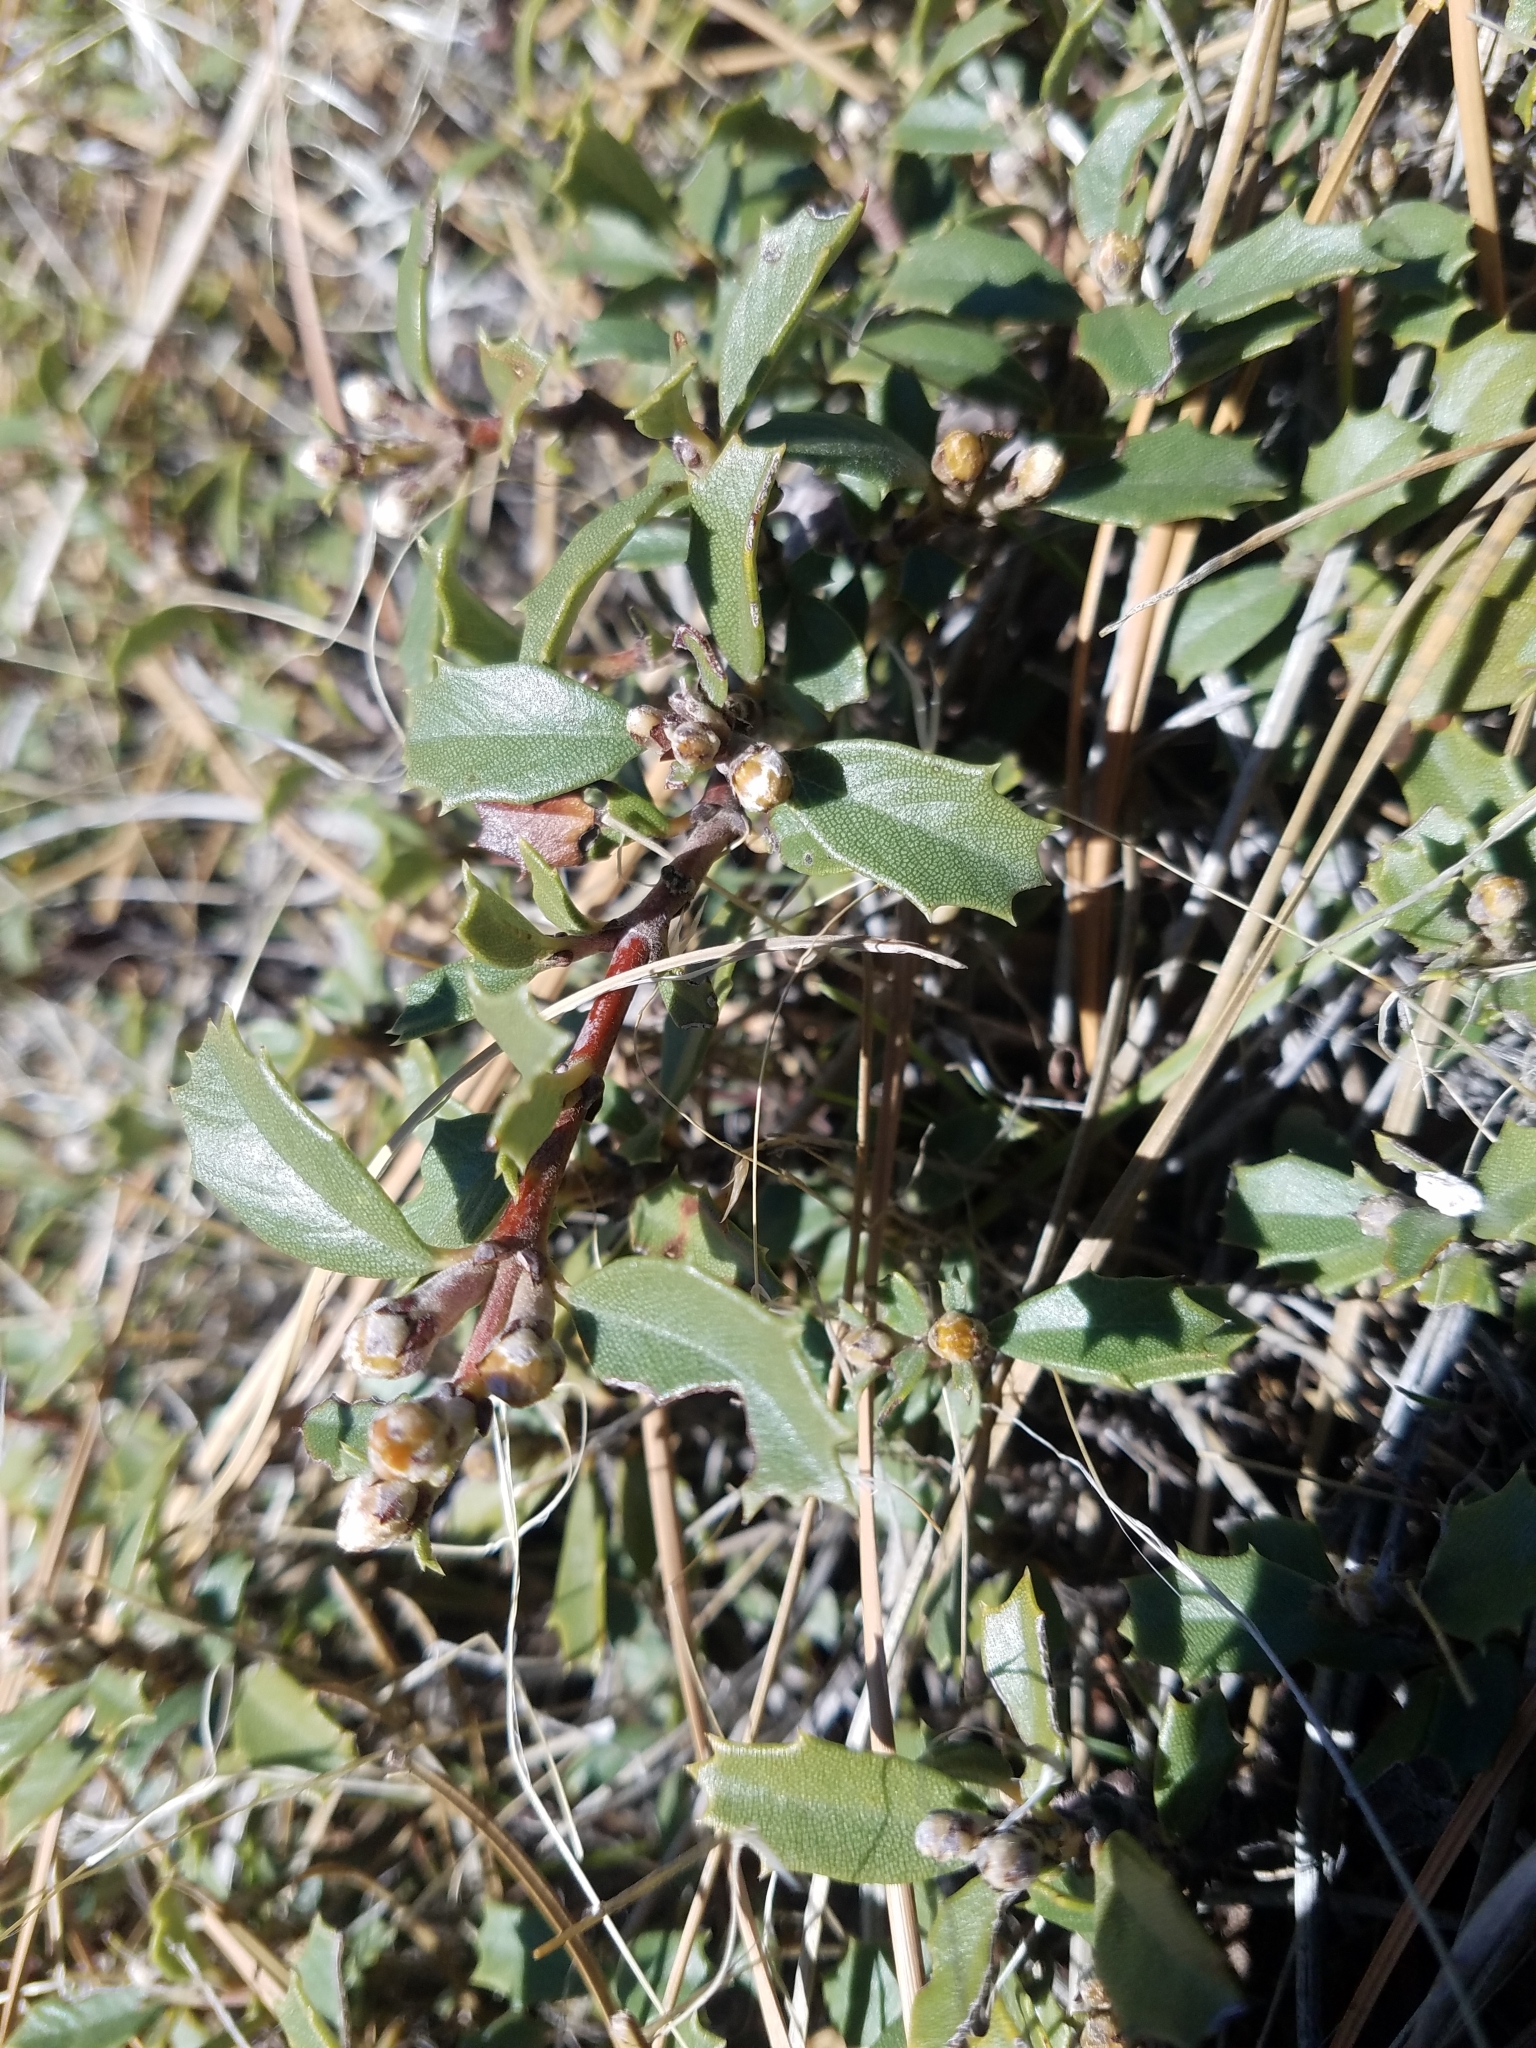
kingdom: Plantae
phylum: Tracheophyta
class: Magnoliopsida
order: Rosales
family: Rhamnaceae
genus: Ceanothus
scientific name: Ceanothus prostratus
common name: Mahala-mat
